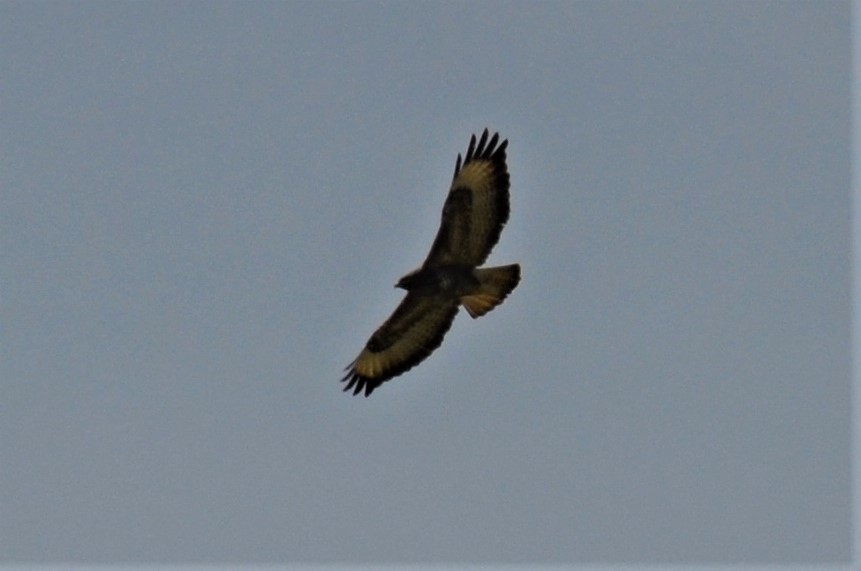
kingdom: Animalia
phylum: Chordata
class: Aves
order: Accipitriformes
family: Accipitridae
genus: Buteo
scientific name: Buteo buteo
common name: Common buzzard
